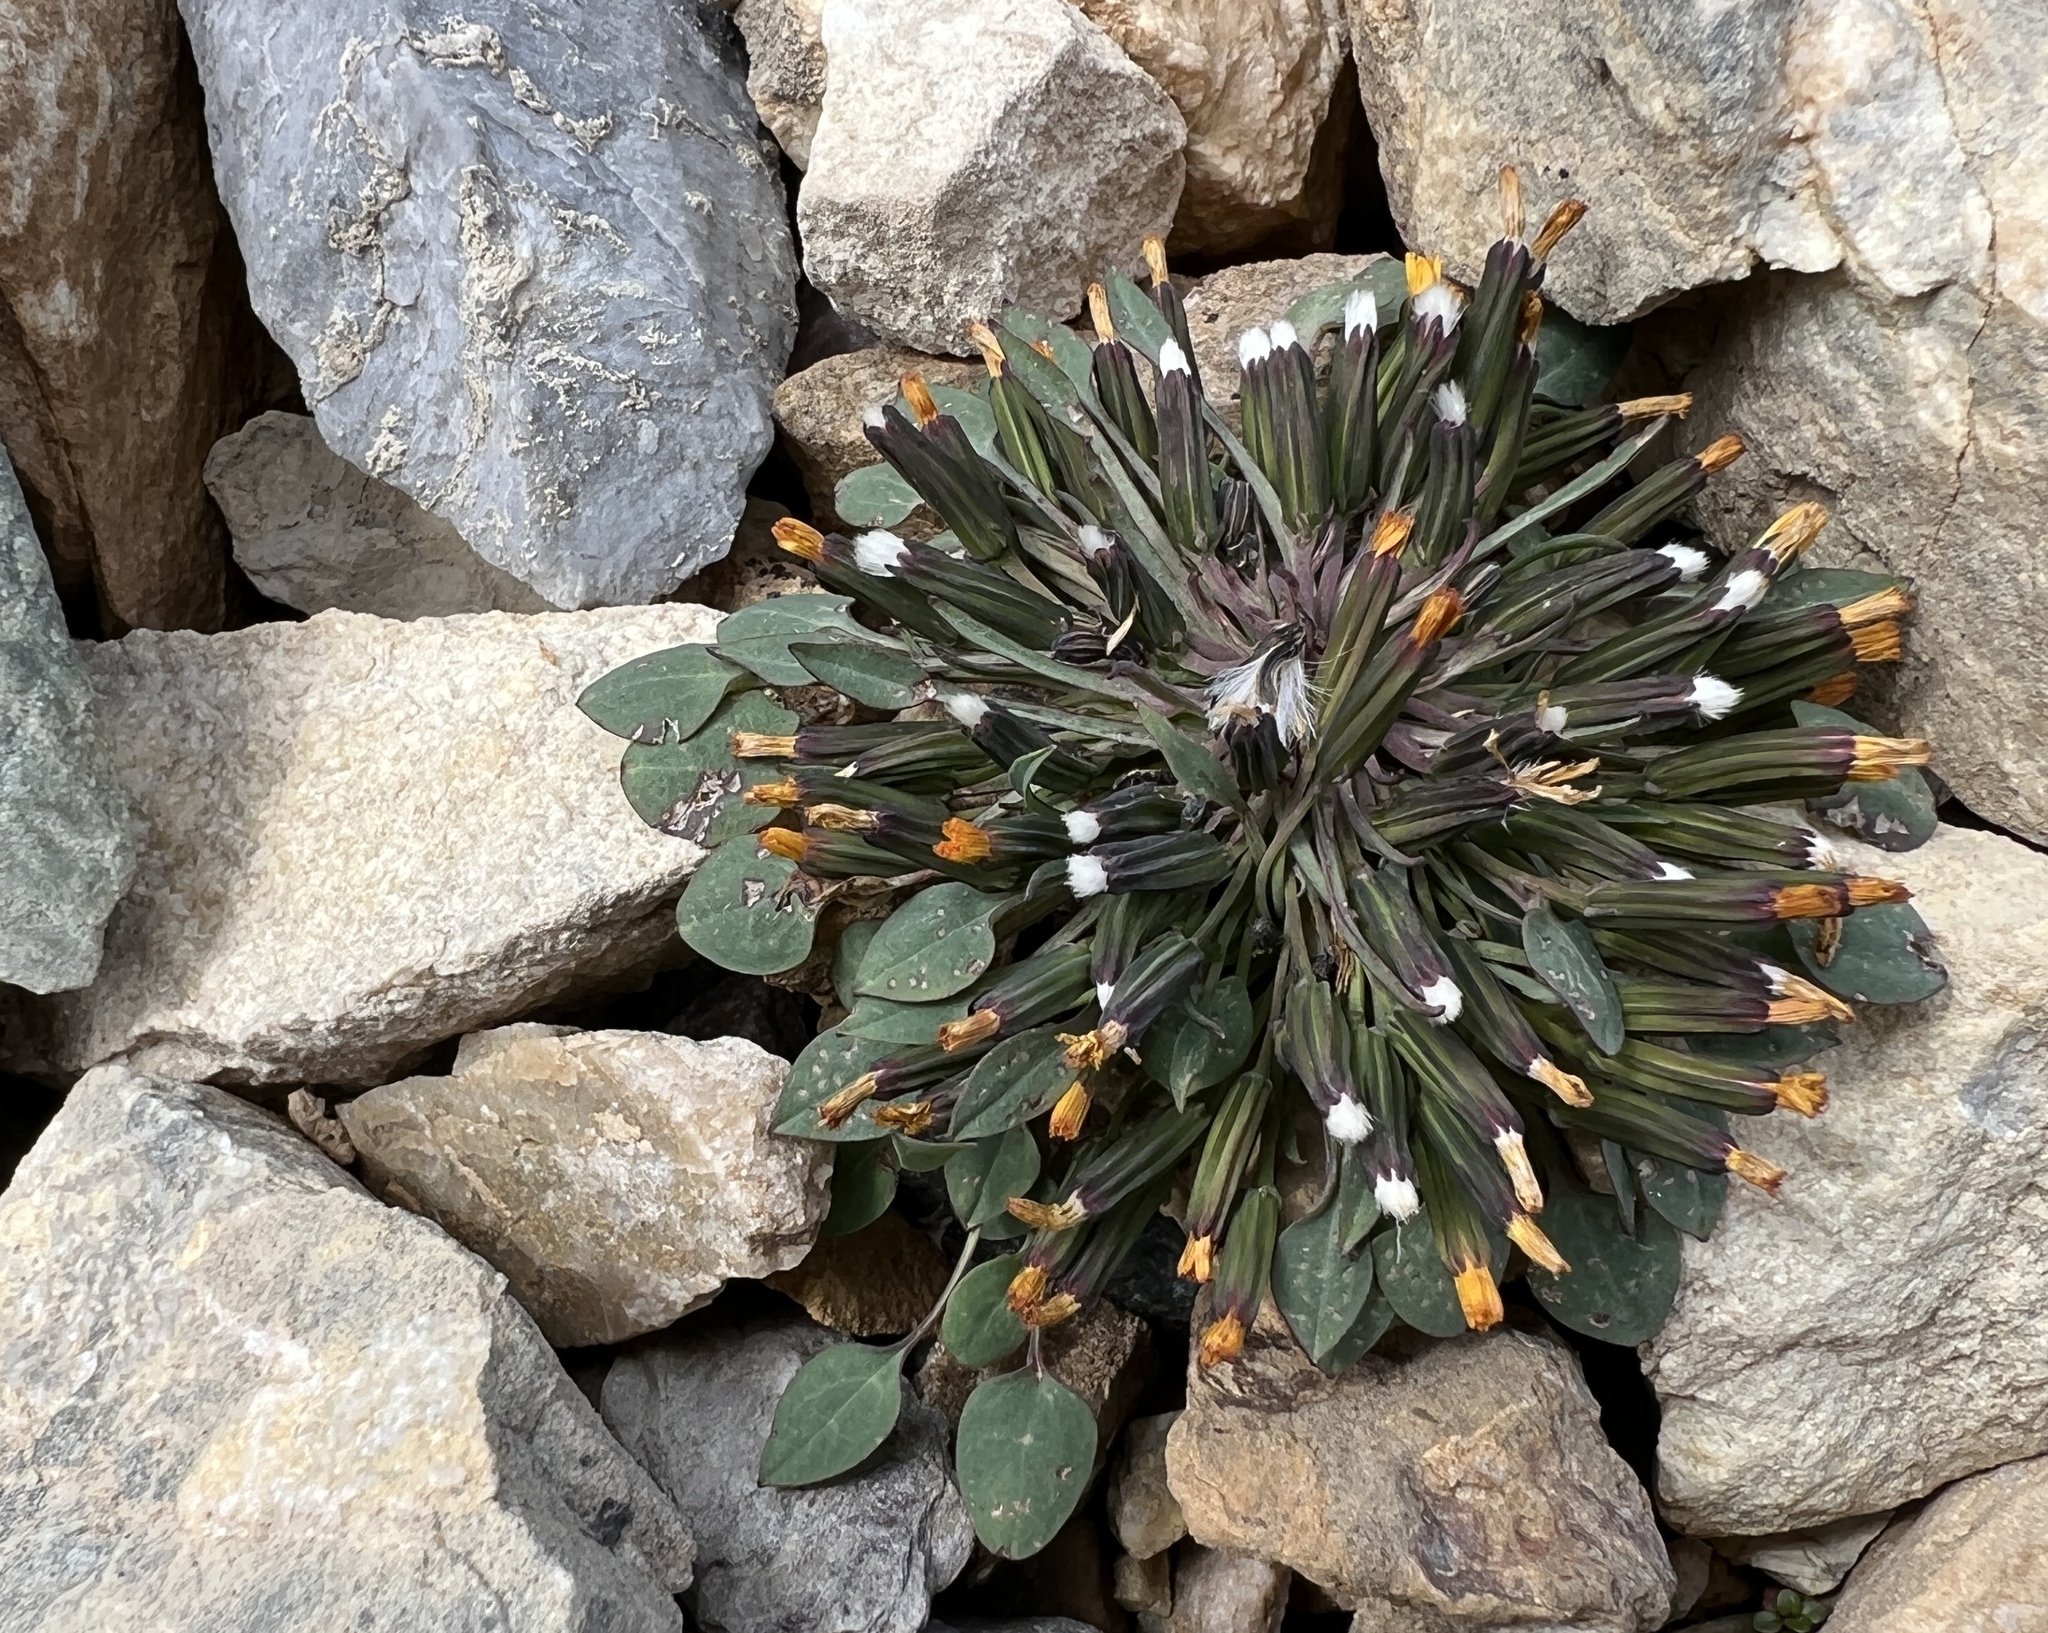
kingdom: Plantae
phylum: Tracheophyta
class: Magnoliopsida
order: Asterales
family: Asteraceae
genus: Askellia
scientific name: Askellia pygmaea
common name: Dwarf alpine hawksbeard
